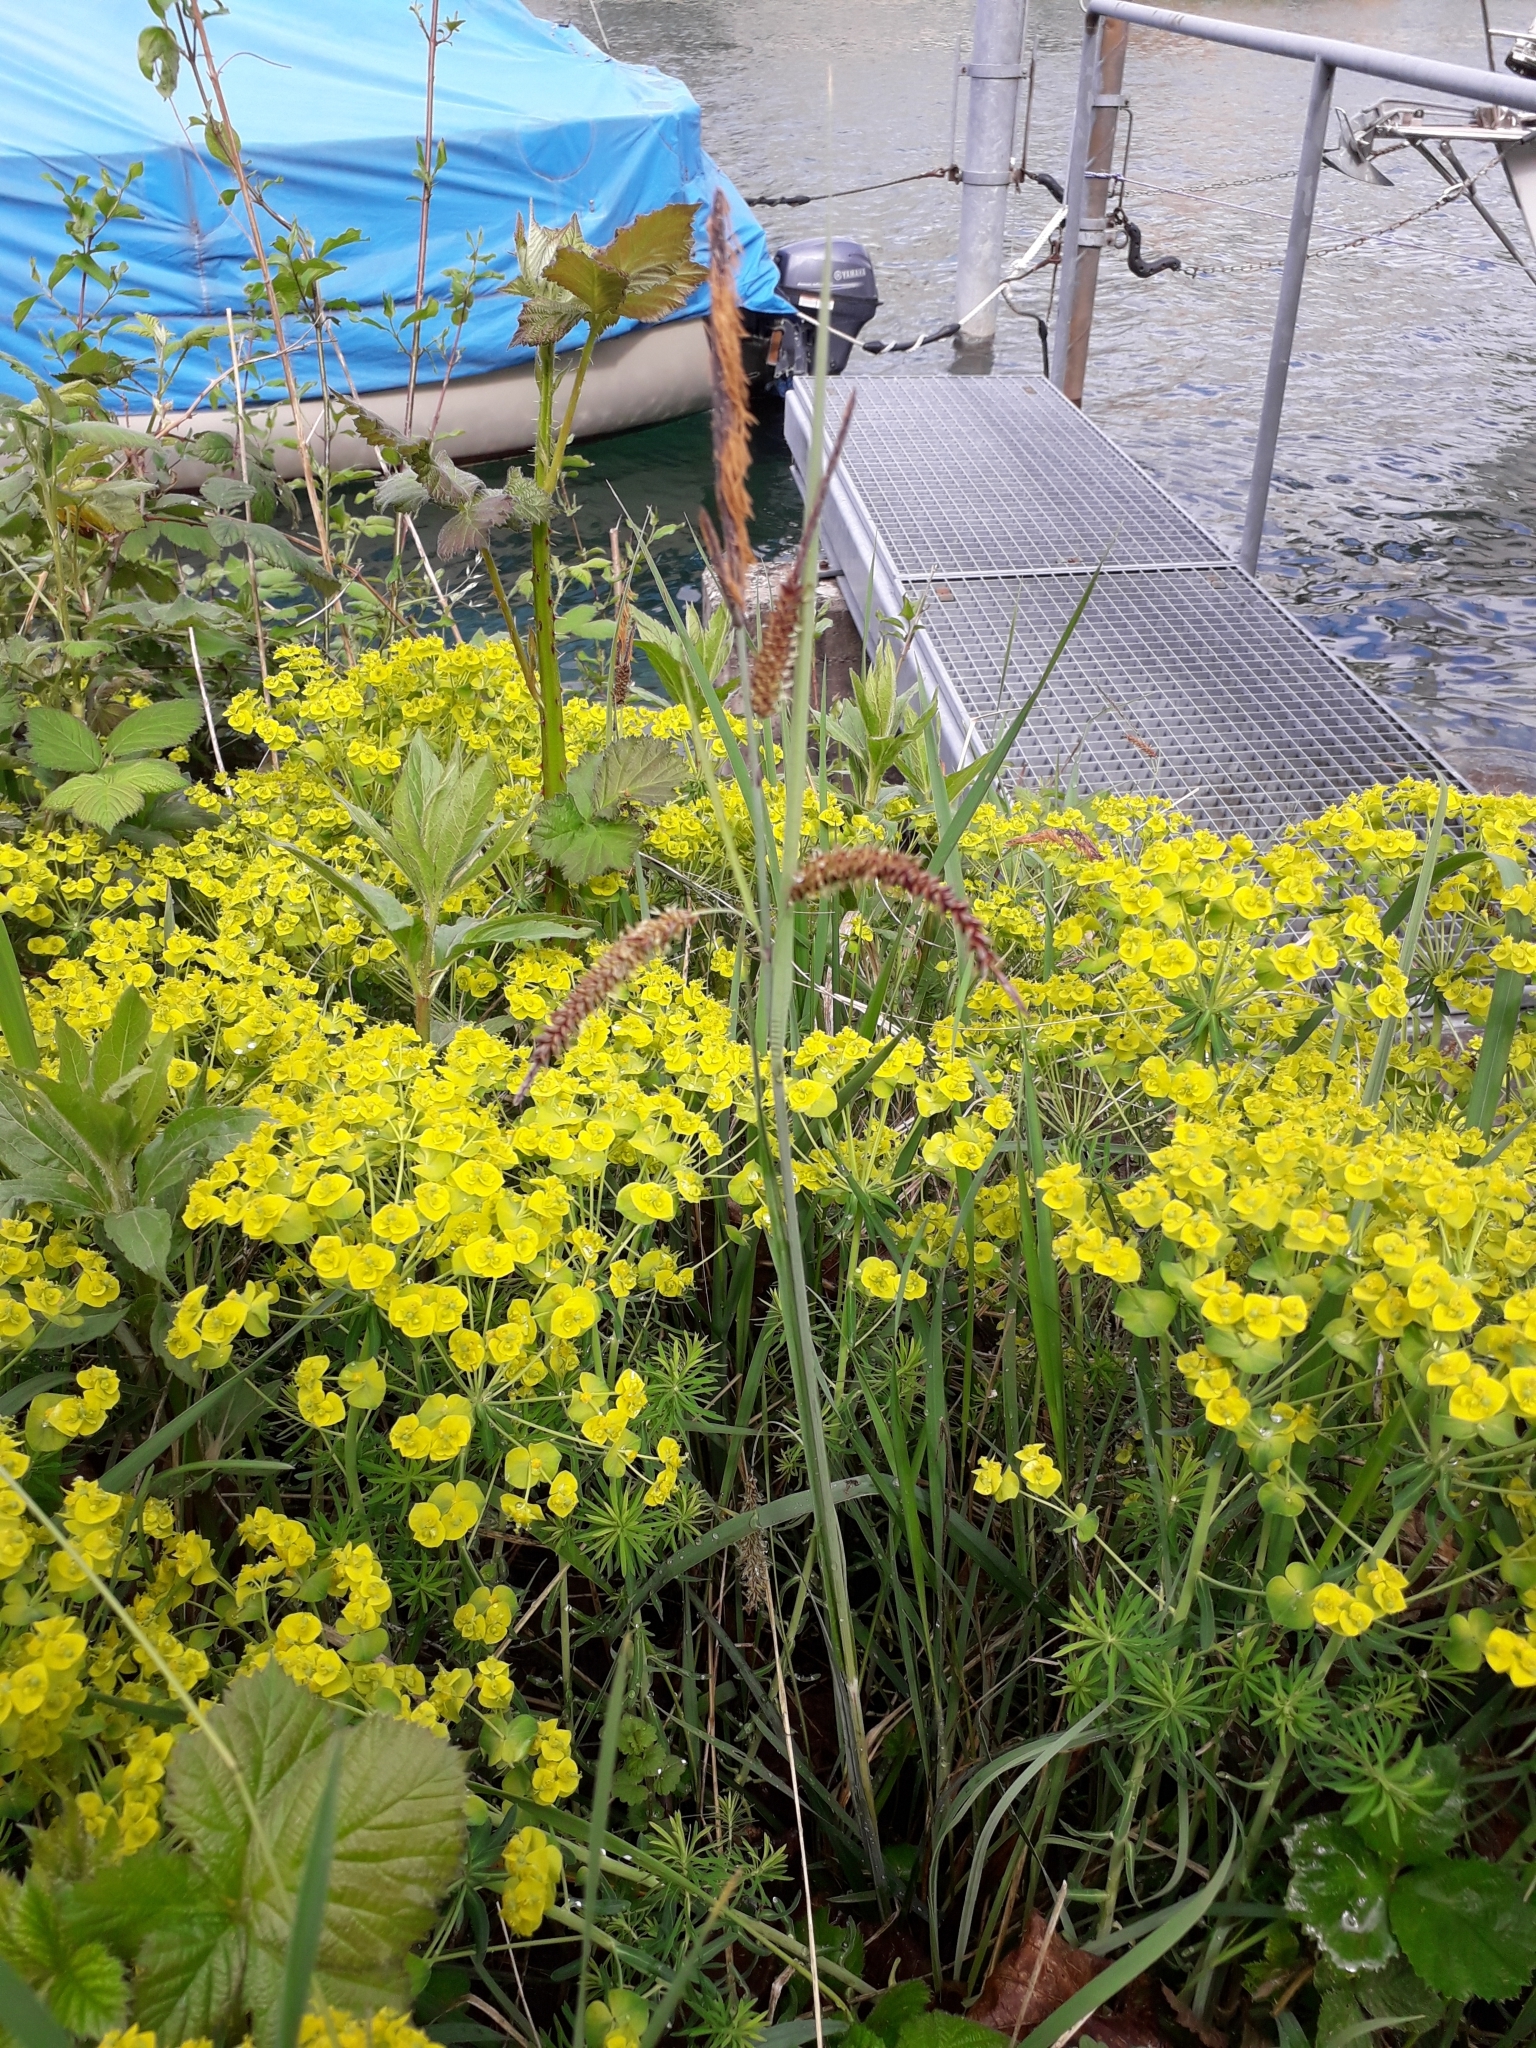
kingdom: Plantae
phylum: Tracheophyta
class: Magnoliopsida
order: Malpighiales
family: Euphorbiaceae
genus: Euphorbia
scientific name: Euphorbia cyparissias
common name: Cypress spurge
